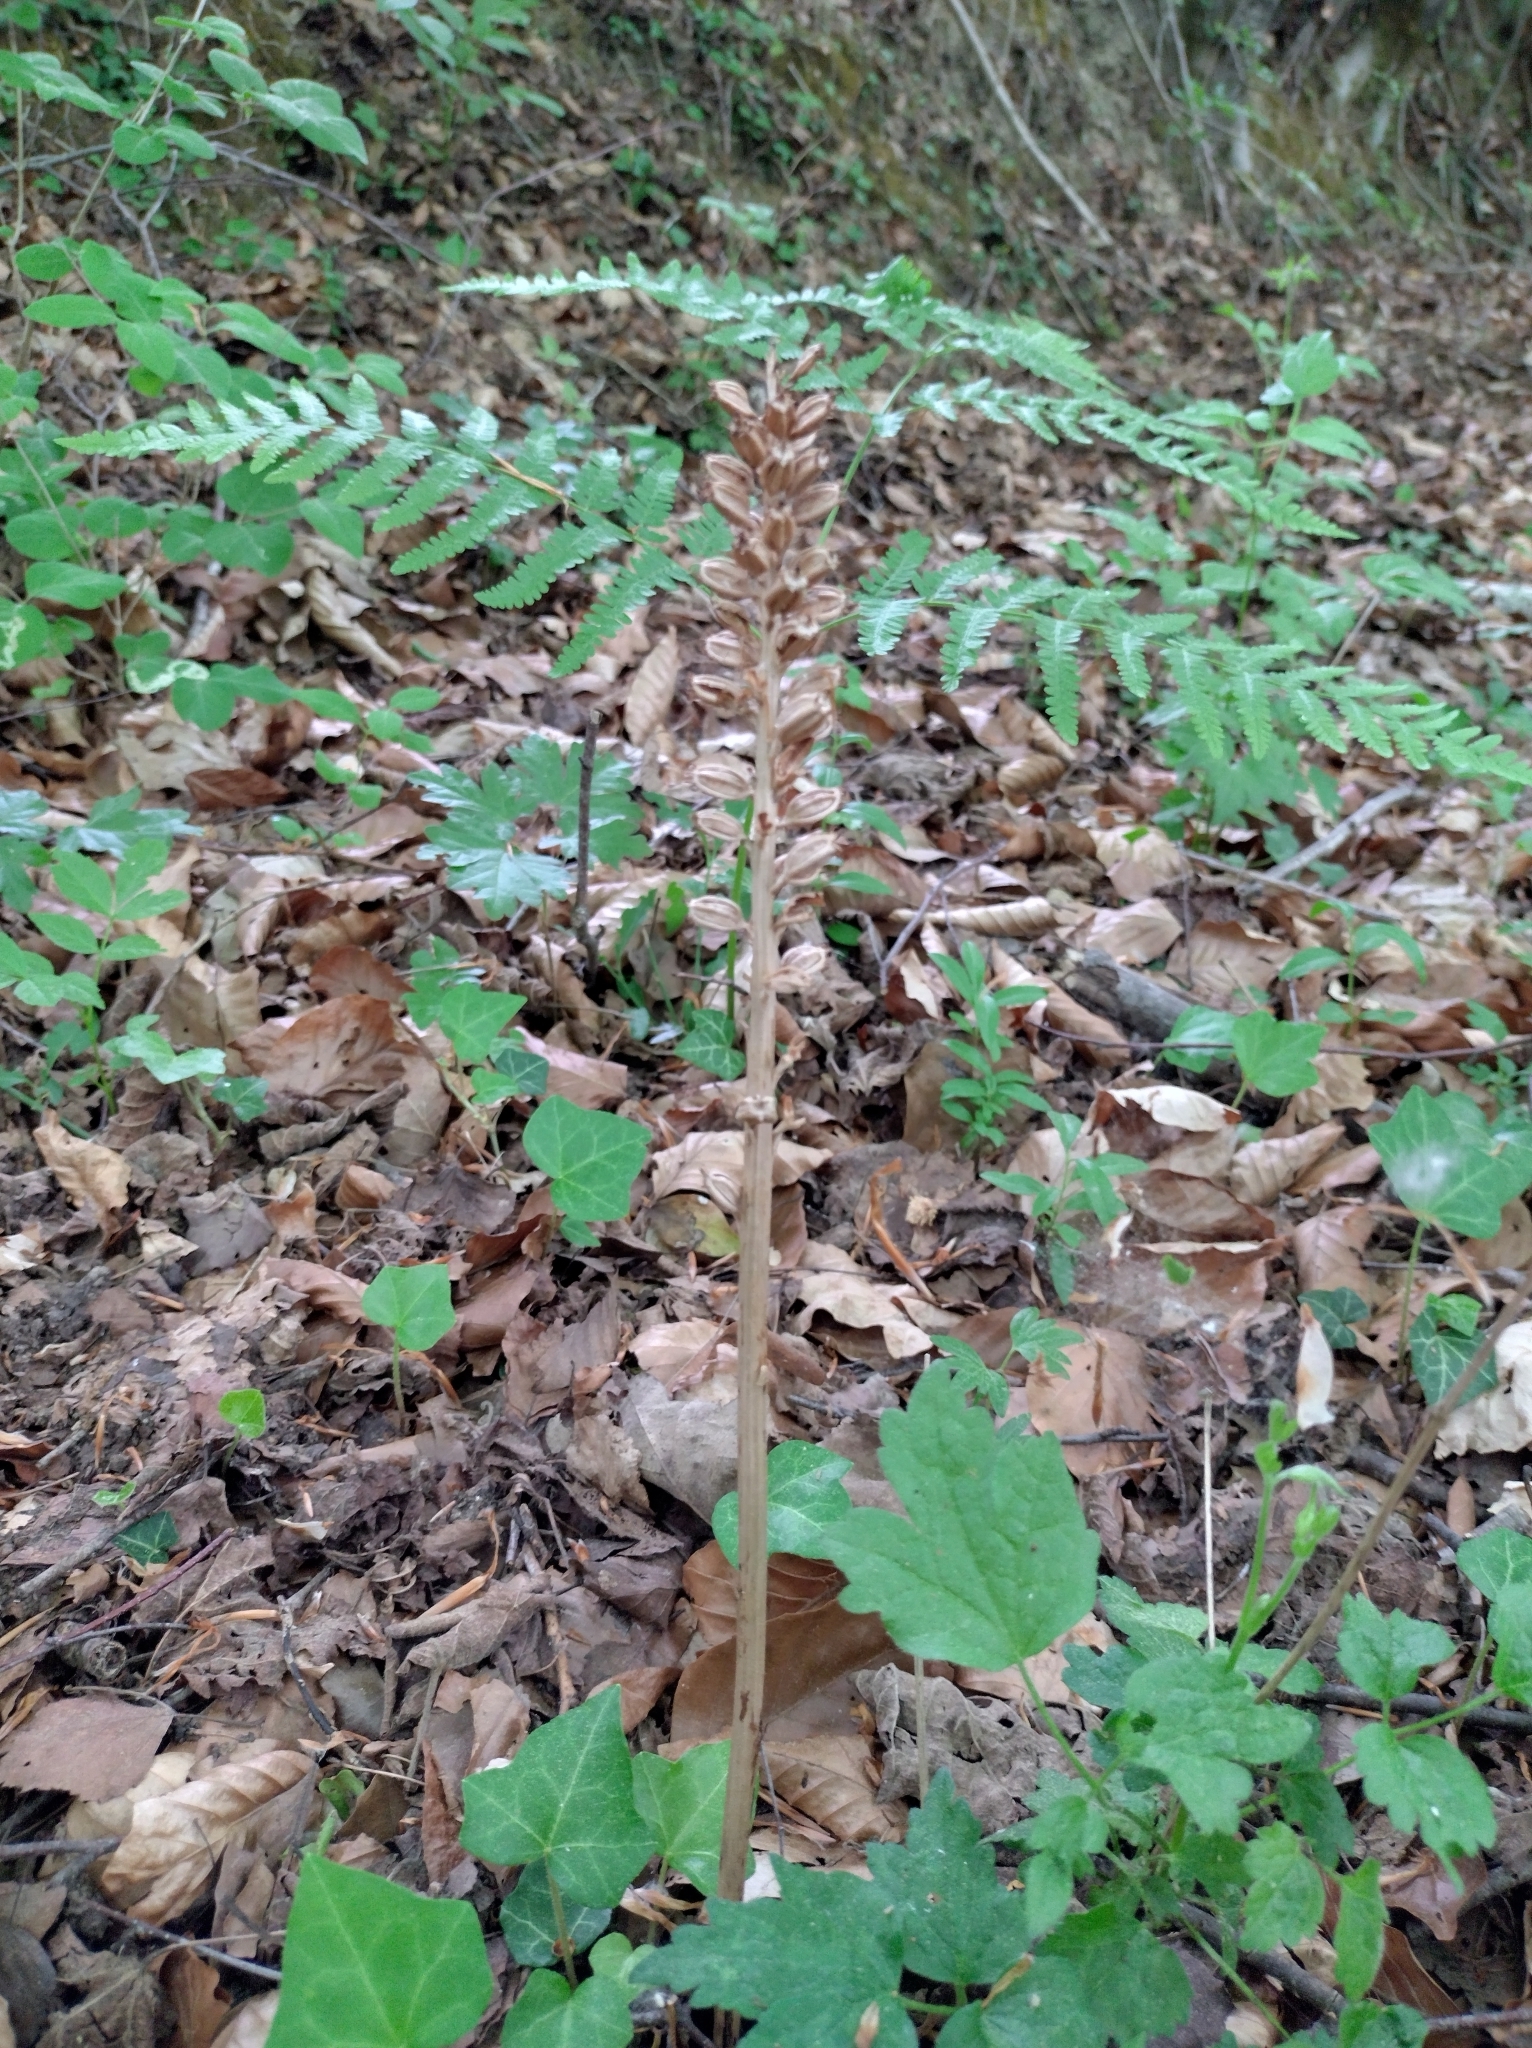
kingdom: Plantae
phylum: Tracheophyta
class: Liliopsida
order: Asparagales
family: Orchidaceae
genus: Neottia
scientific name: Neottia nidus-avis
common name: Bird's-nest orchid
